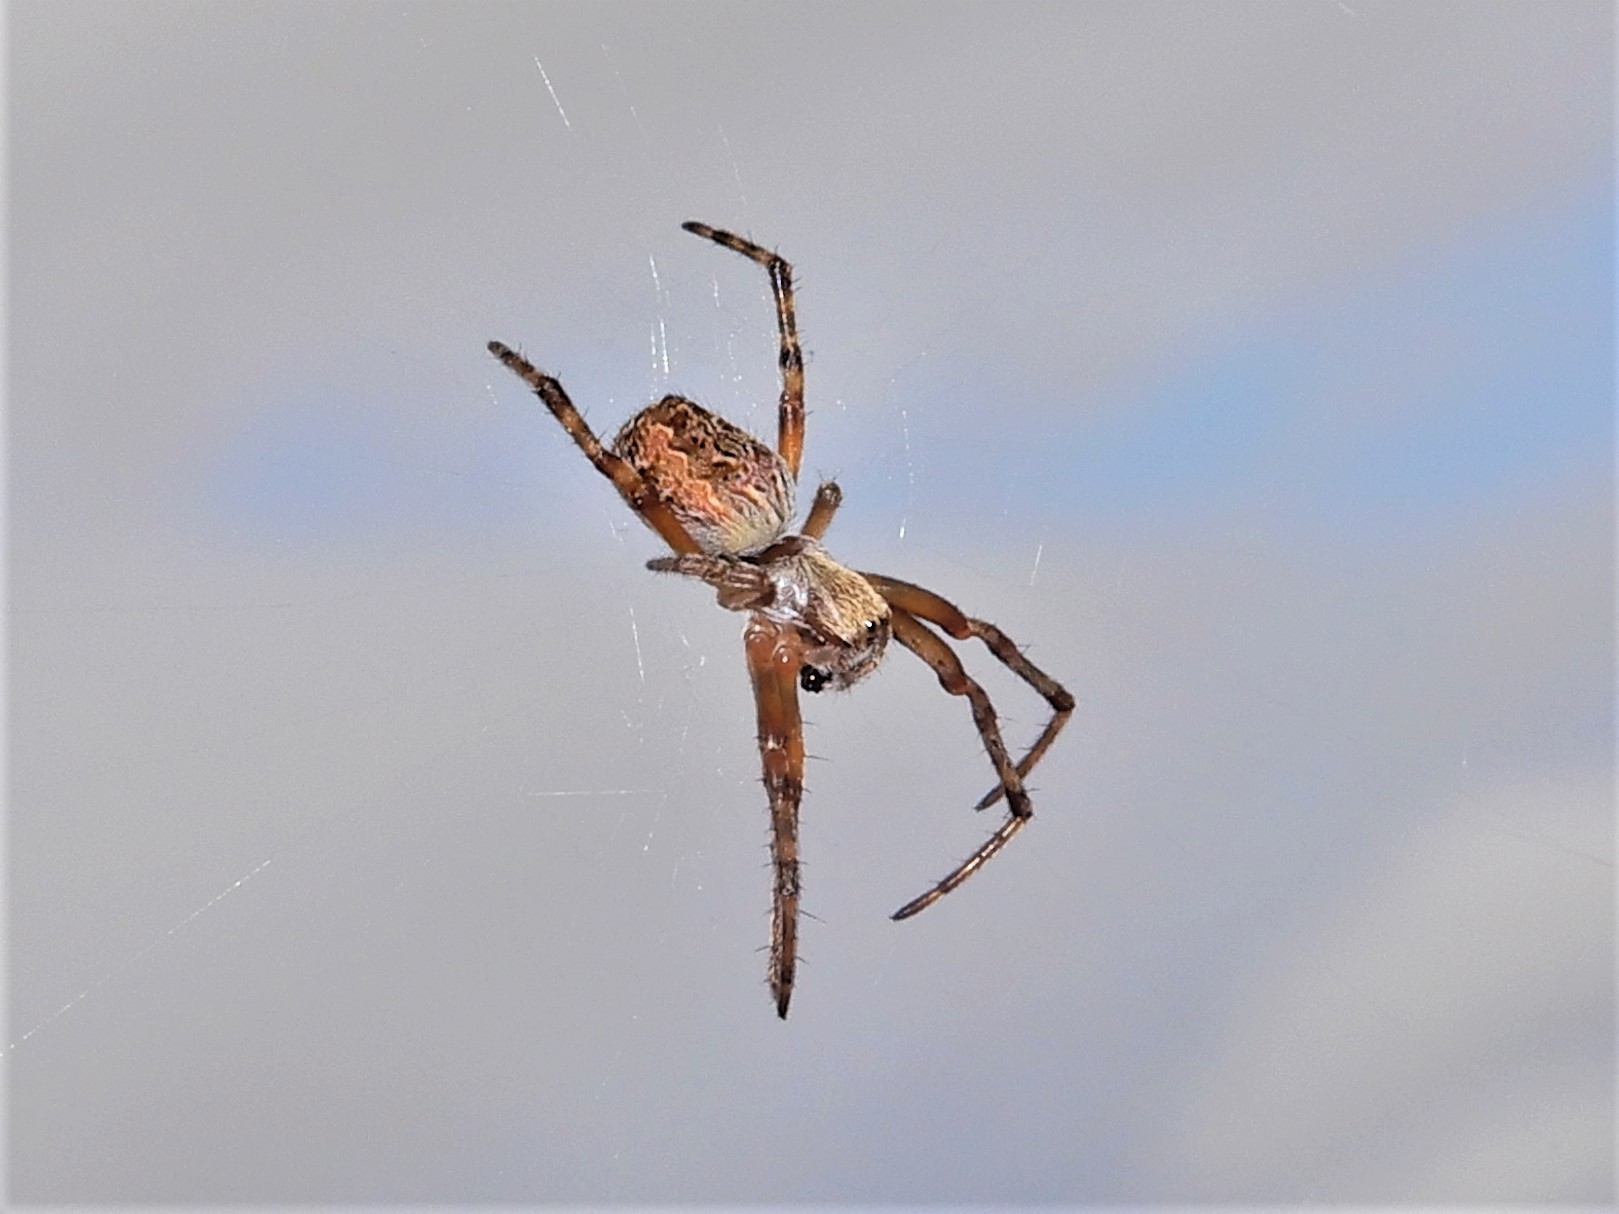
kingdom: Animalia
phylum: Arthropoda
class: Arachnida
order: Araneae
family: Araneidae
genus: Salsa
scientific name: Salsa fuliginata
